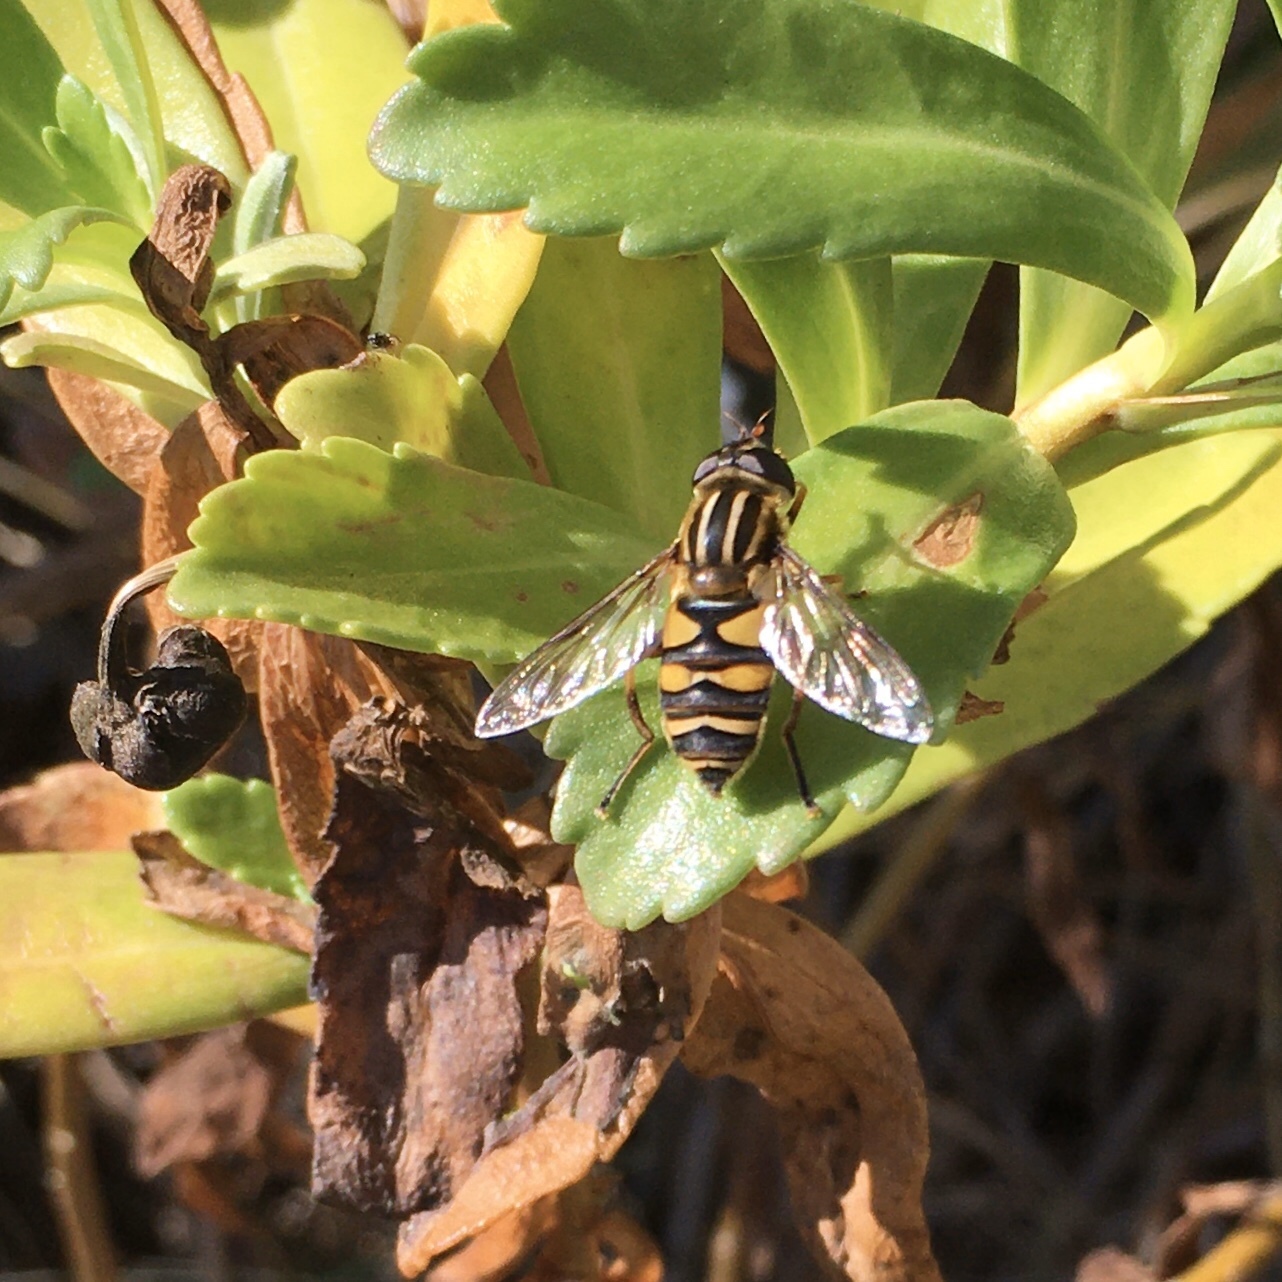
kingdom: Animalia
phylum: Arthropoda
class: Insecta
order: Diptera
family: Syrphidae
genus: Helophilus
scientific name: Helophilus fasciatus
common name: Narrow-headed marsh fly
